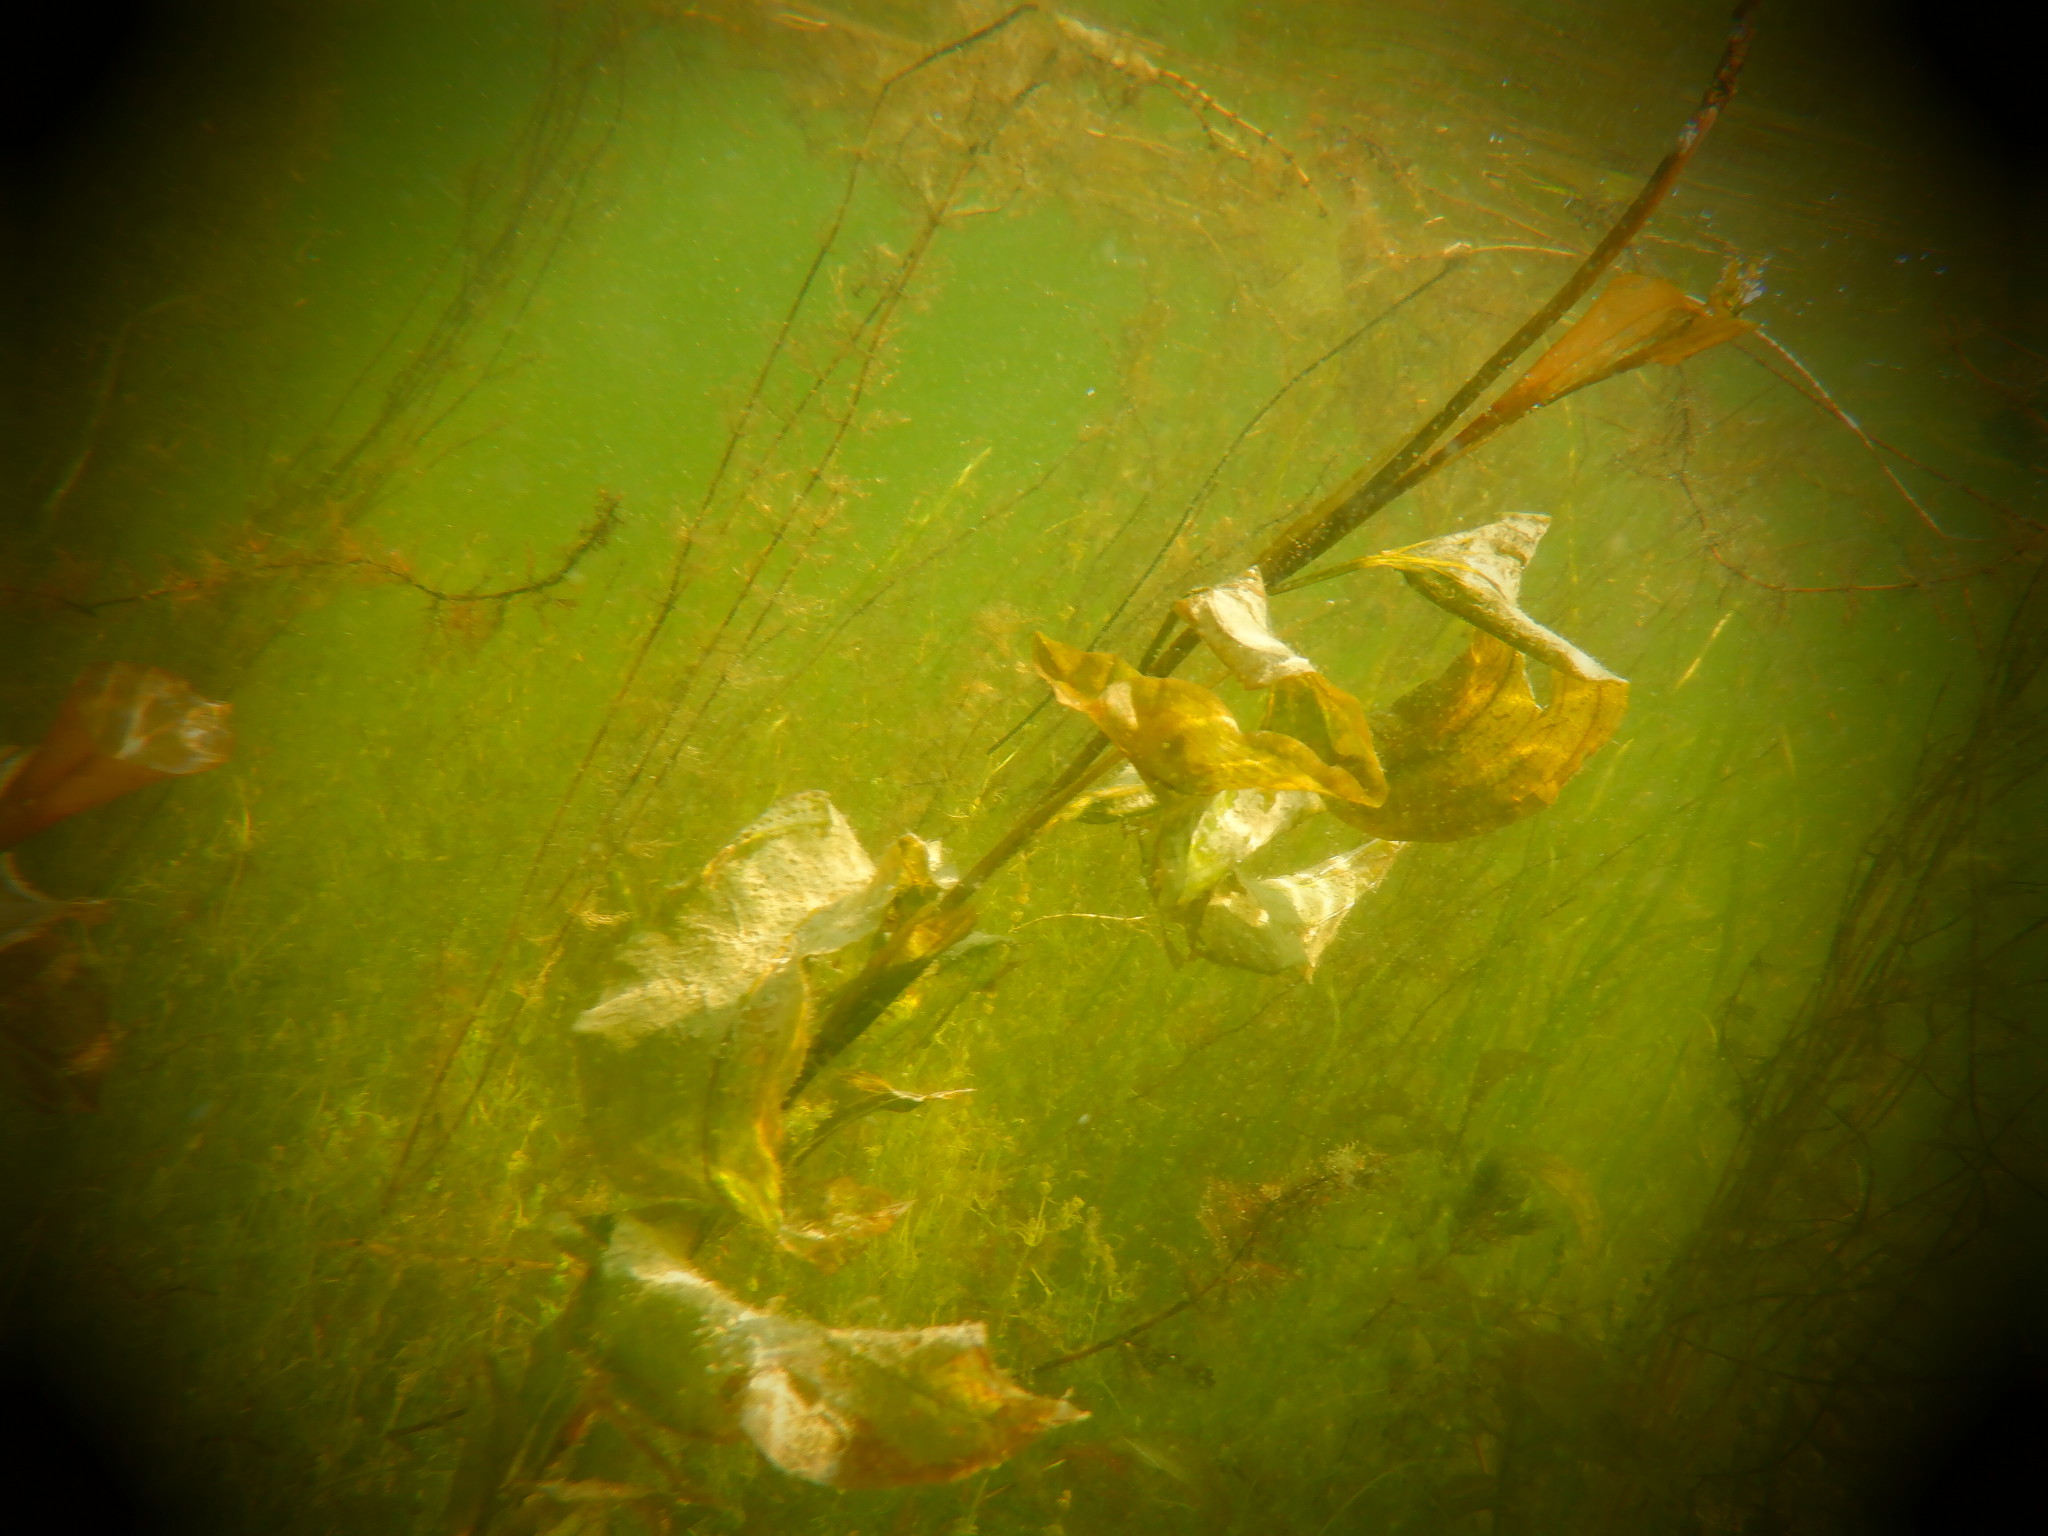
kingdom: Plantae
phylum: Tracheophyta
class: Liliopsida
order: Alismatales
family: Potamogetonaceae
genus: Potamogeton
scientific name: Potamogeton amplifolius
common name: Broad-leaved pondweed
